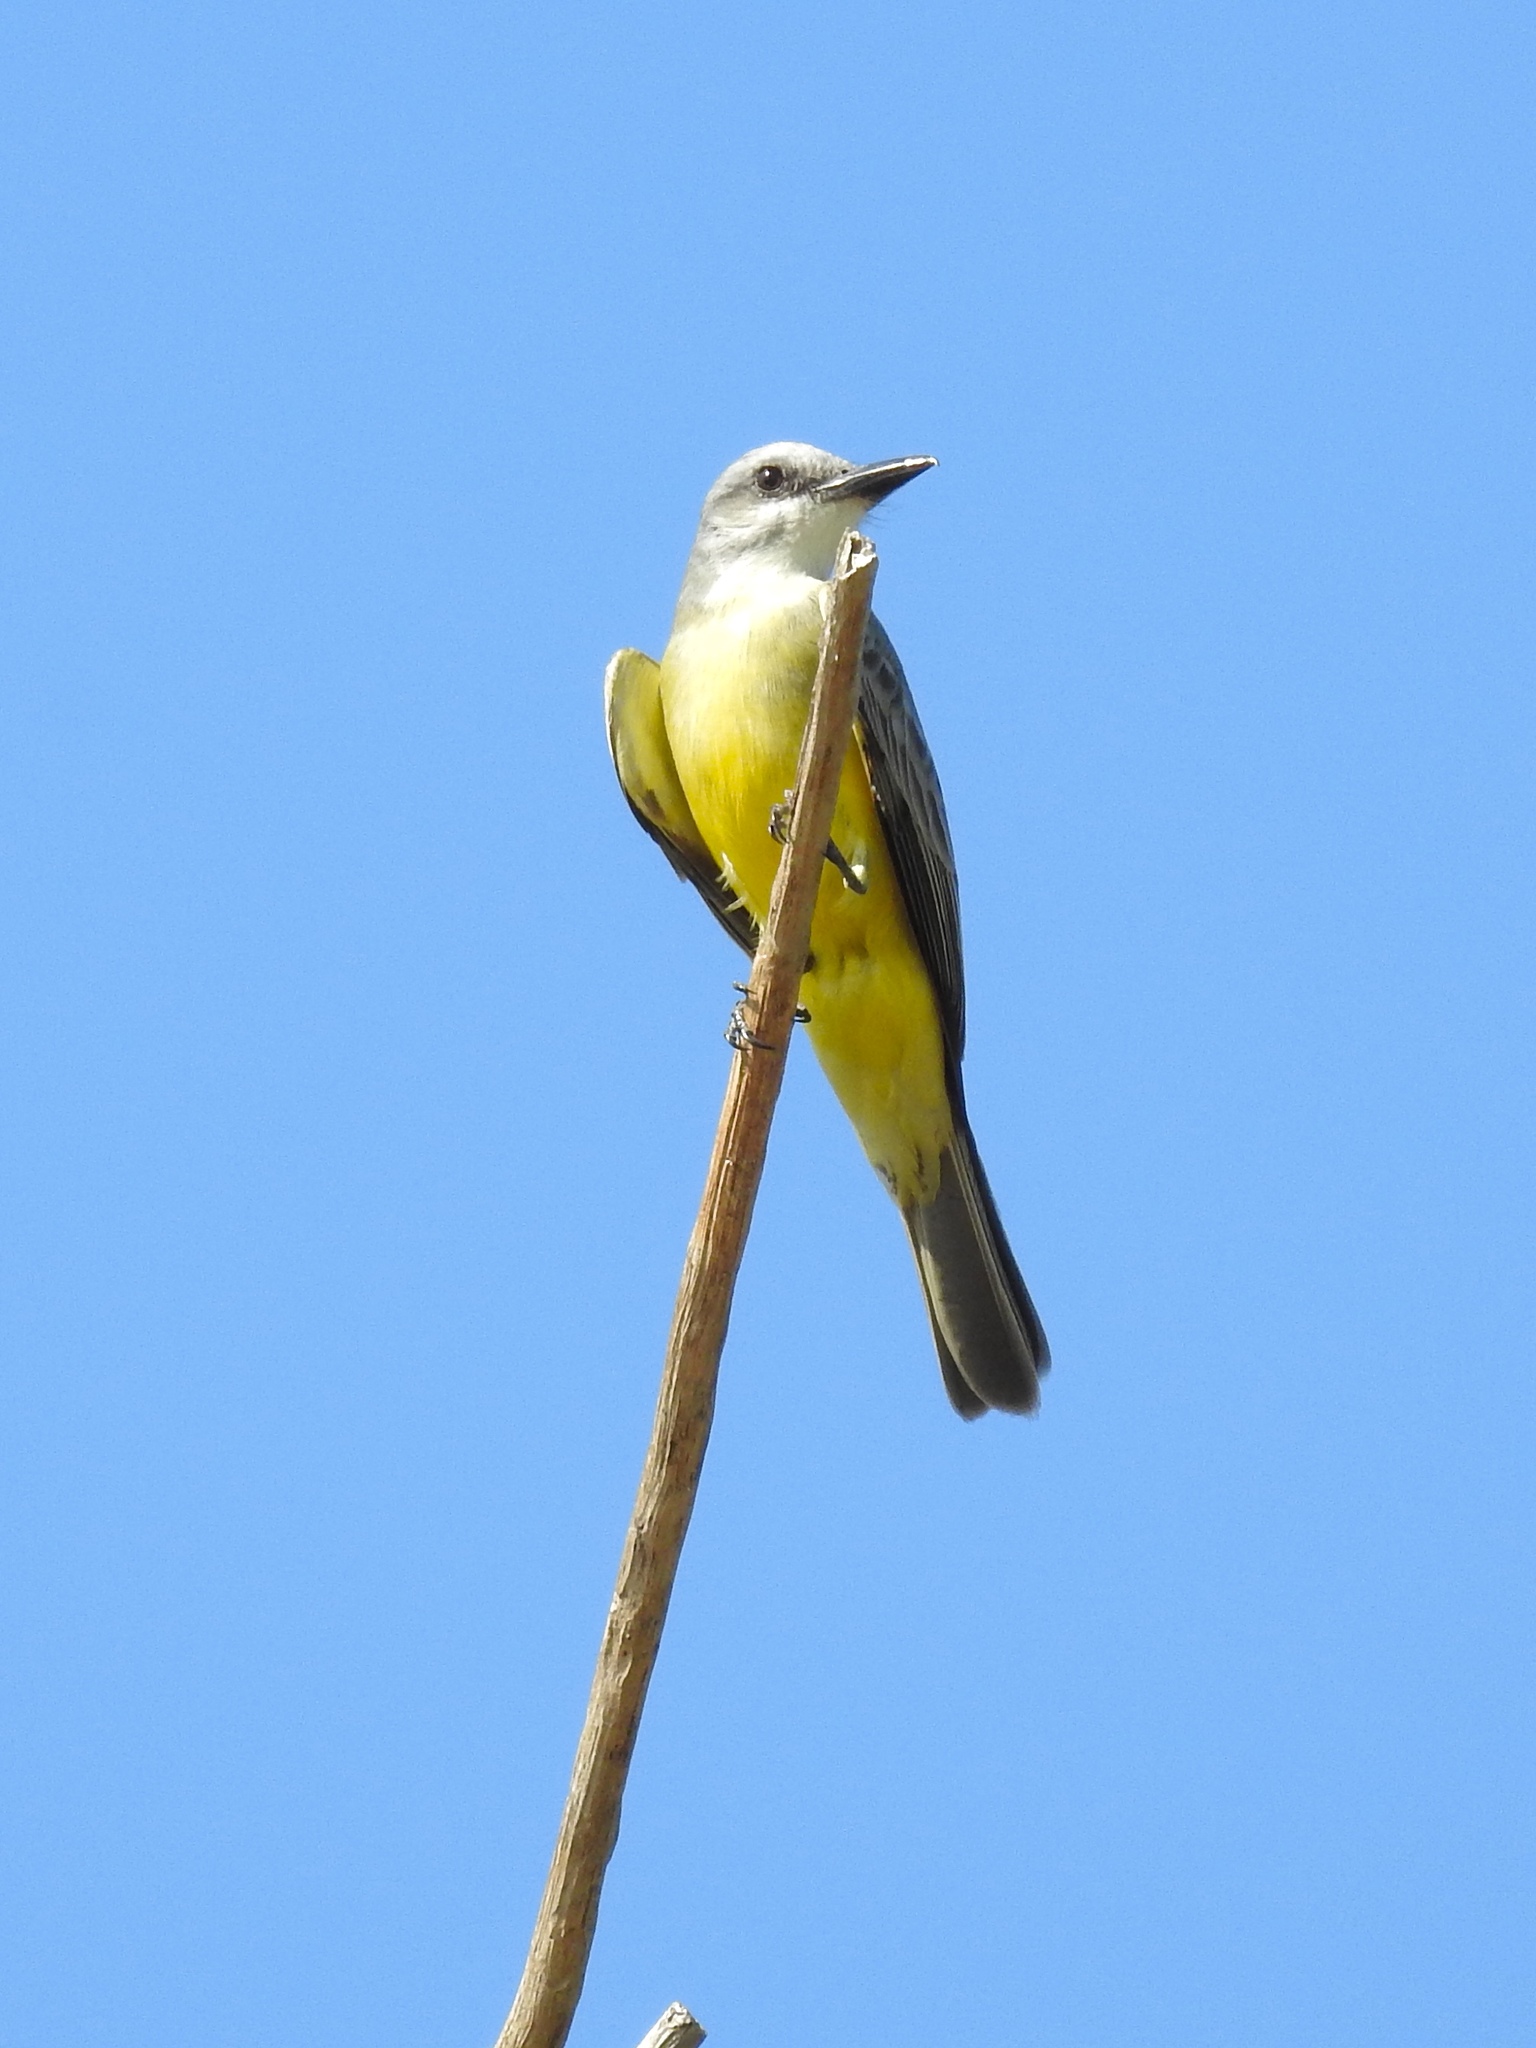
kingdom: Animalia
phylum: Chordata
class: Aves
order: Passeriformes
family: Tyrannidae
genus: Tyrannus
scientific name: Tyrannus melancholicus
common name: Tropical kingbird
